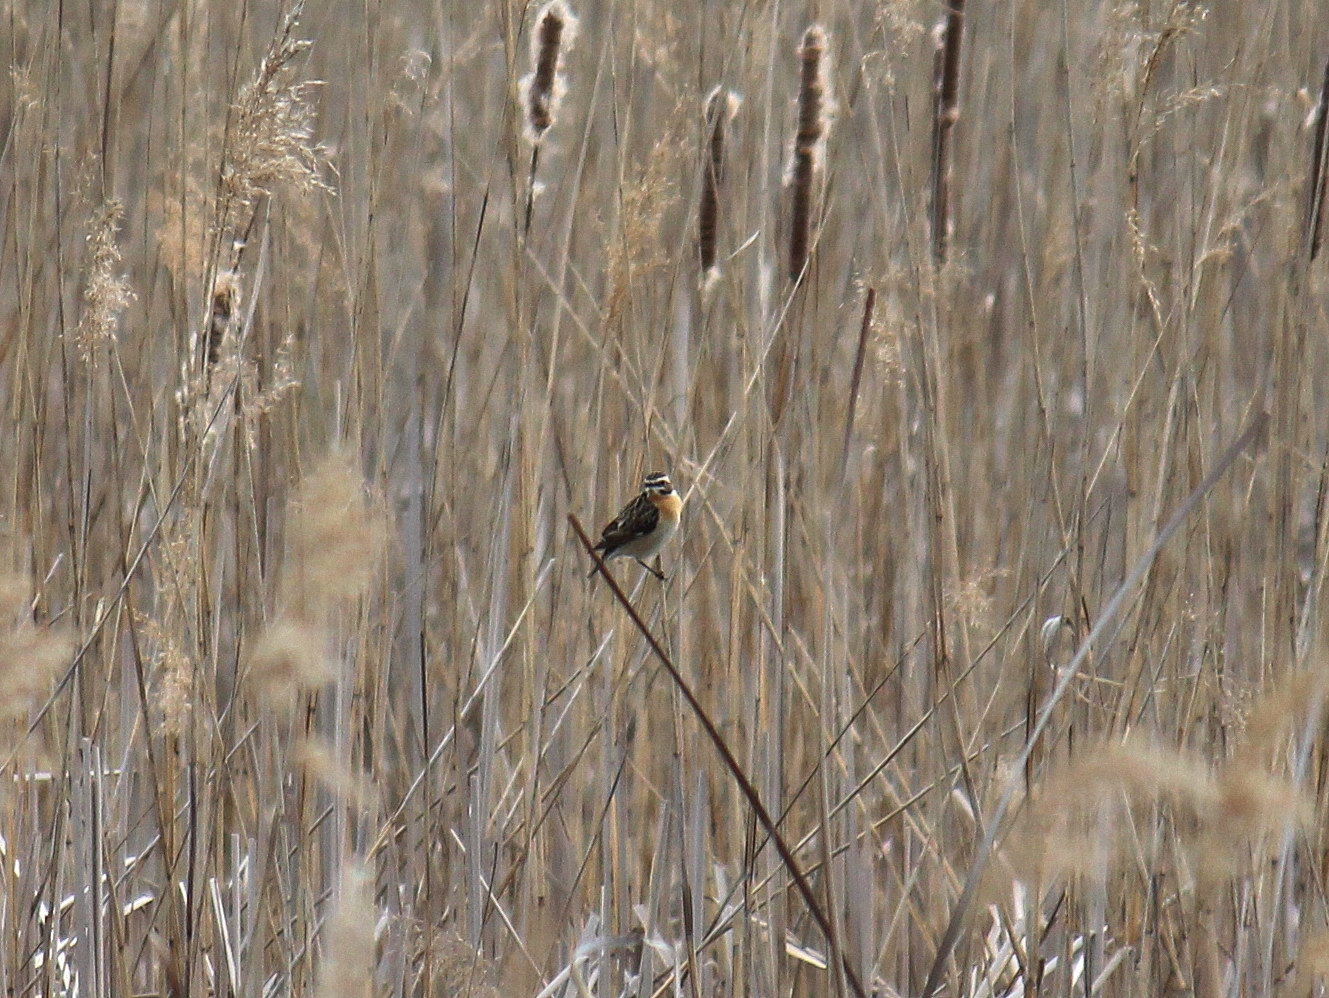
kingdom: Animalia
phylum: Chordata
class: Aves
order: Passeriformes
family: Muscicapidae
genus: Saxicola
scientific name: Saxicola rubetra
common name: Whinchat
